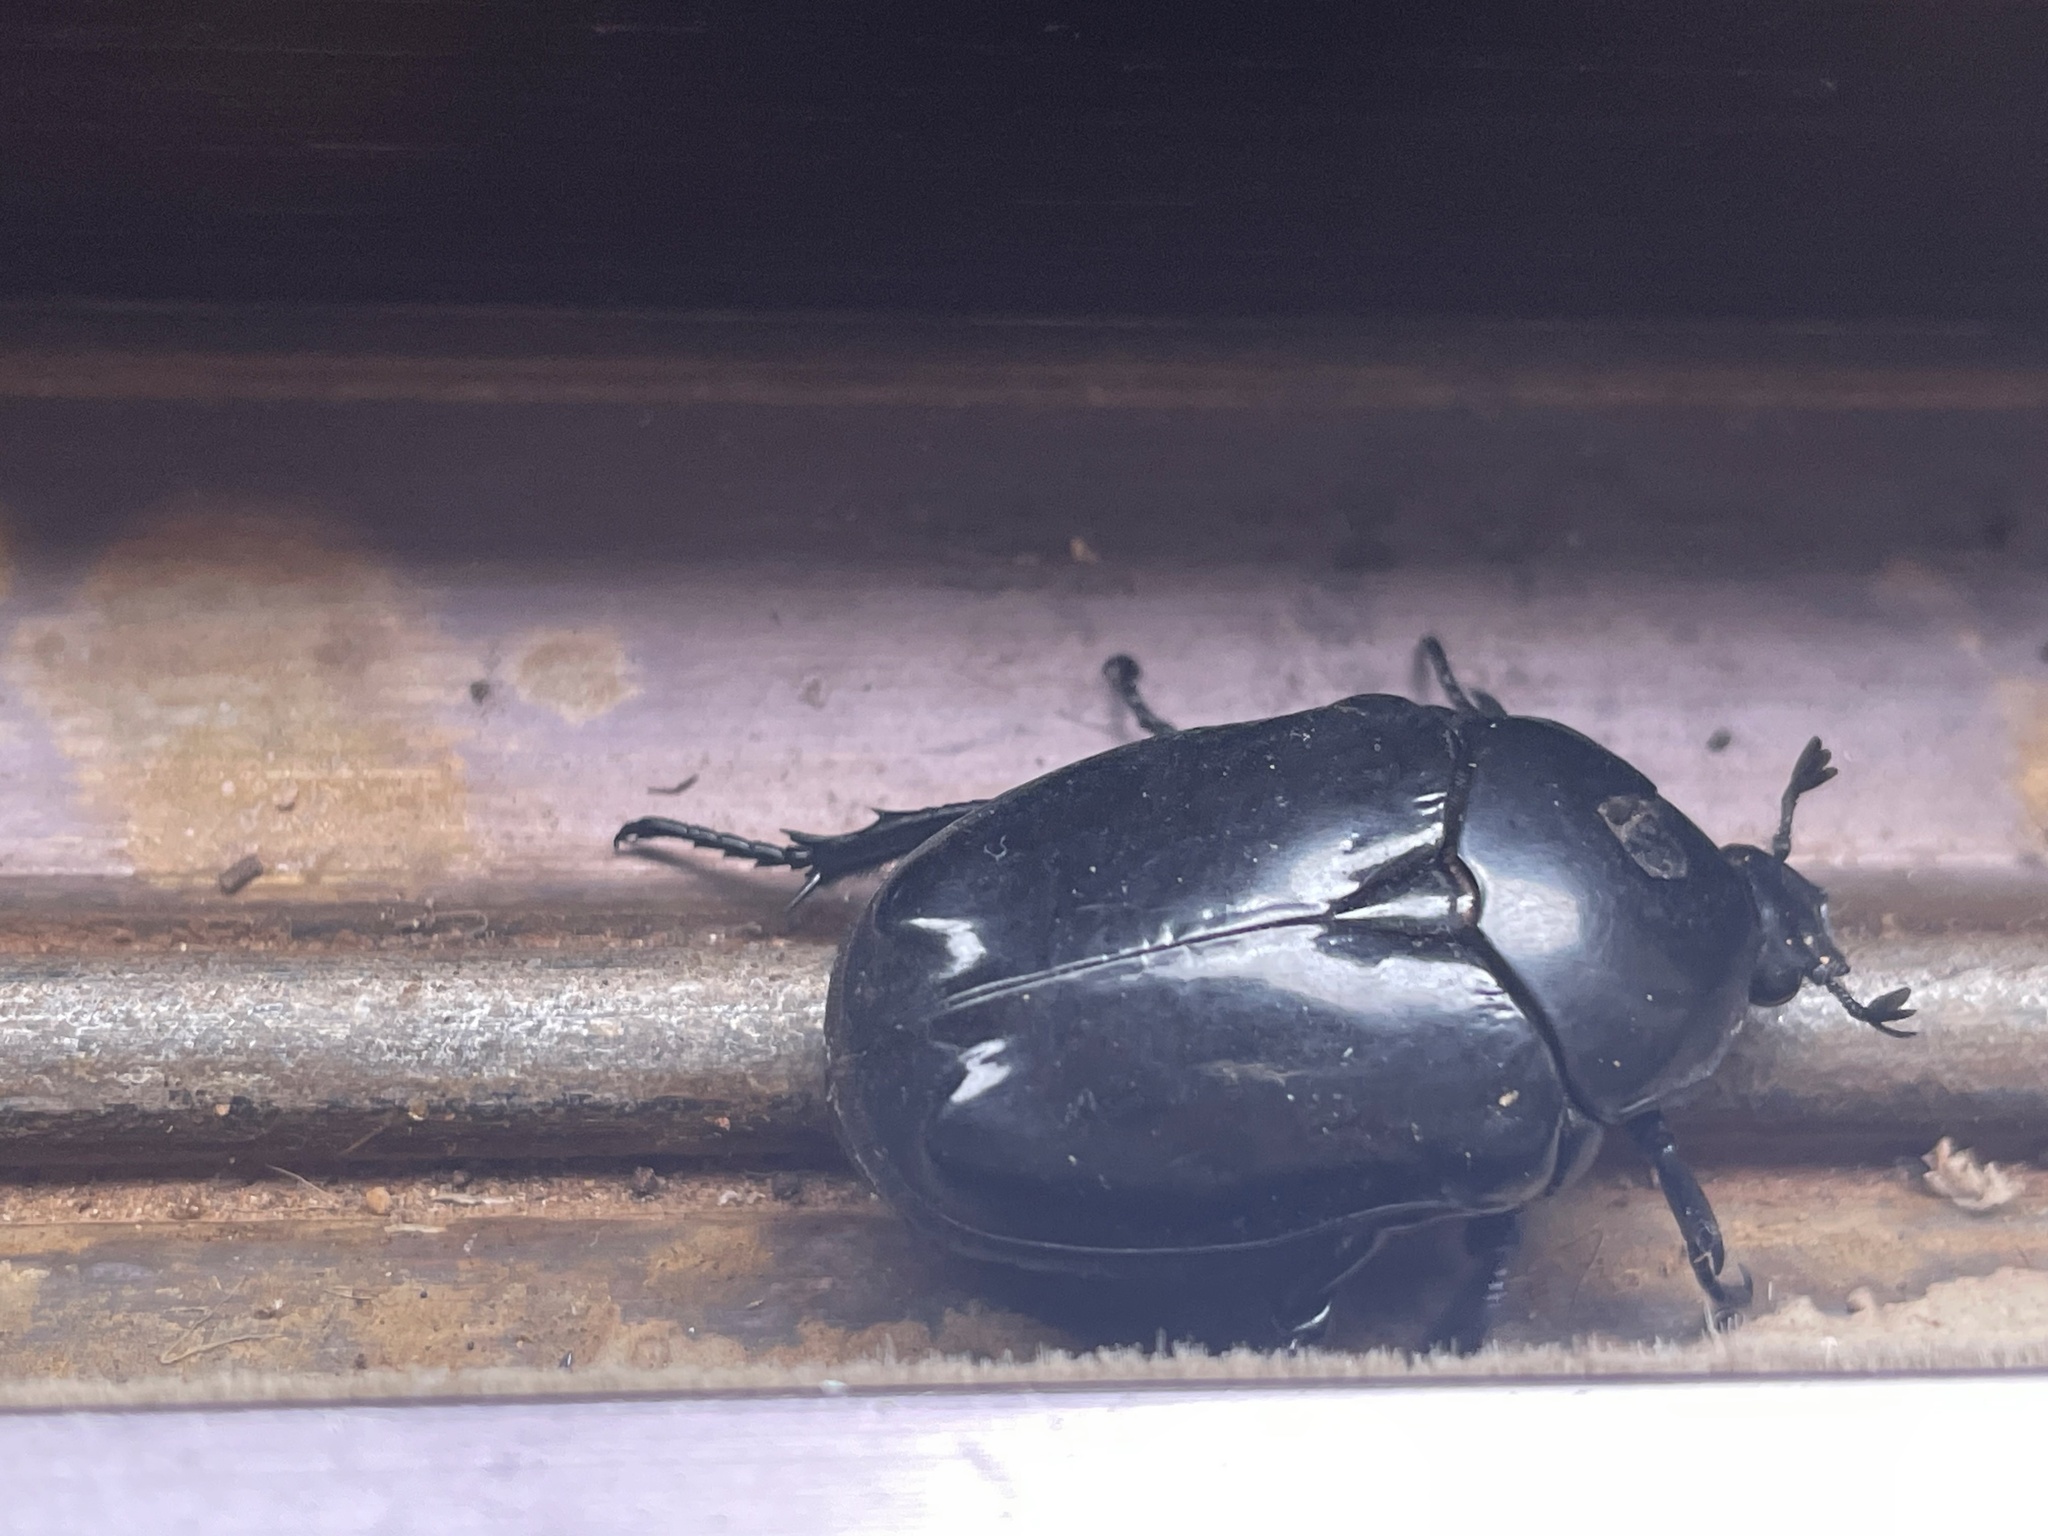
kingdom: Animalia
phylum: Arthropoda
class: Insecta
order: Coleoptera
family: Scarabaeidae
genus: Diplognatha
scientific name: Diplognatha gagates
